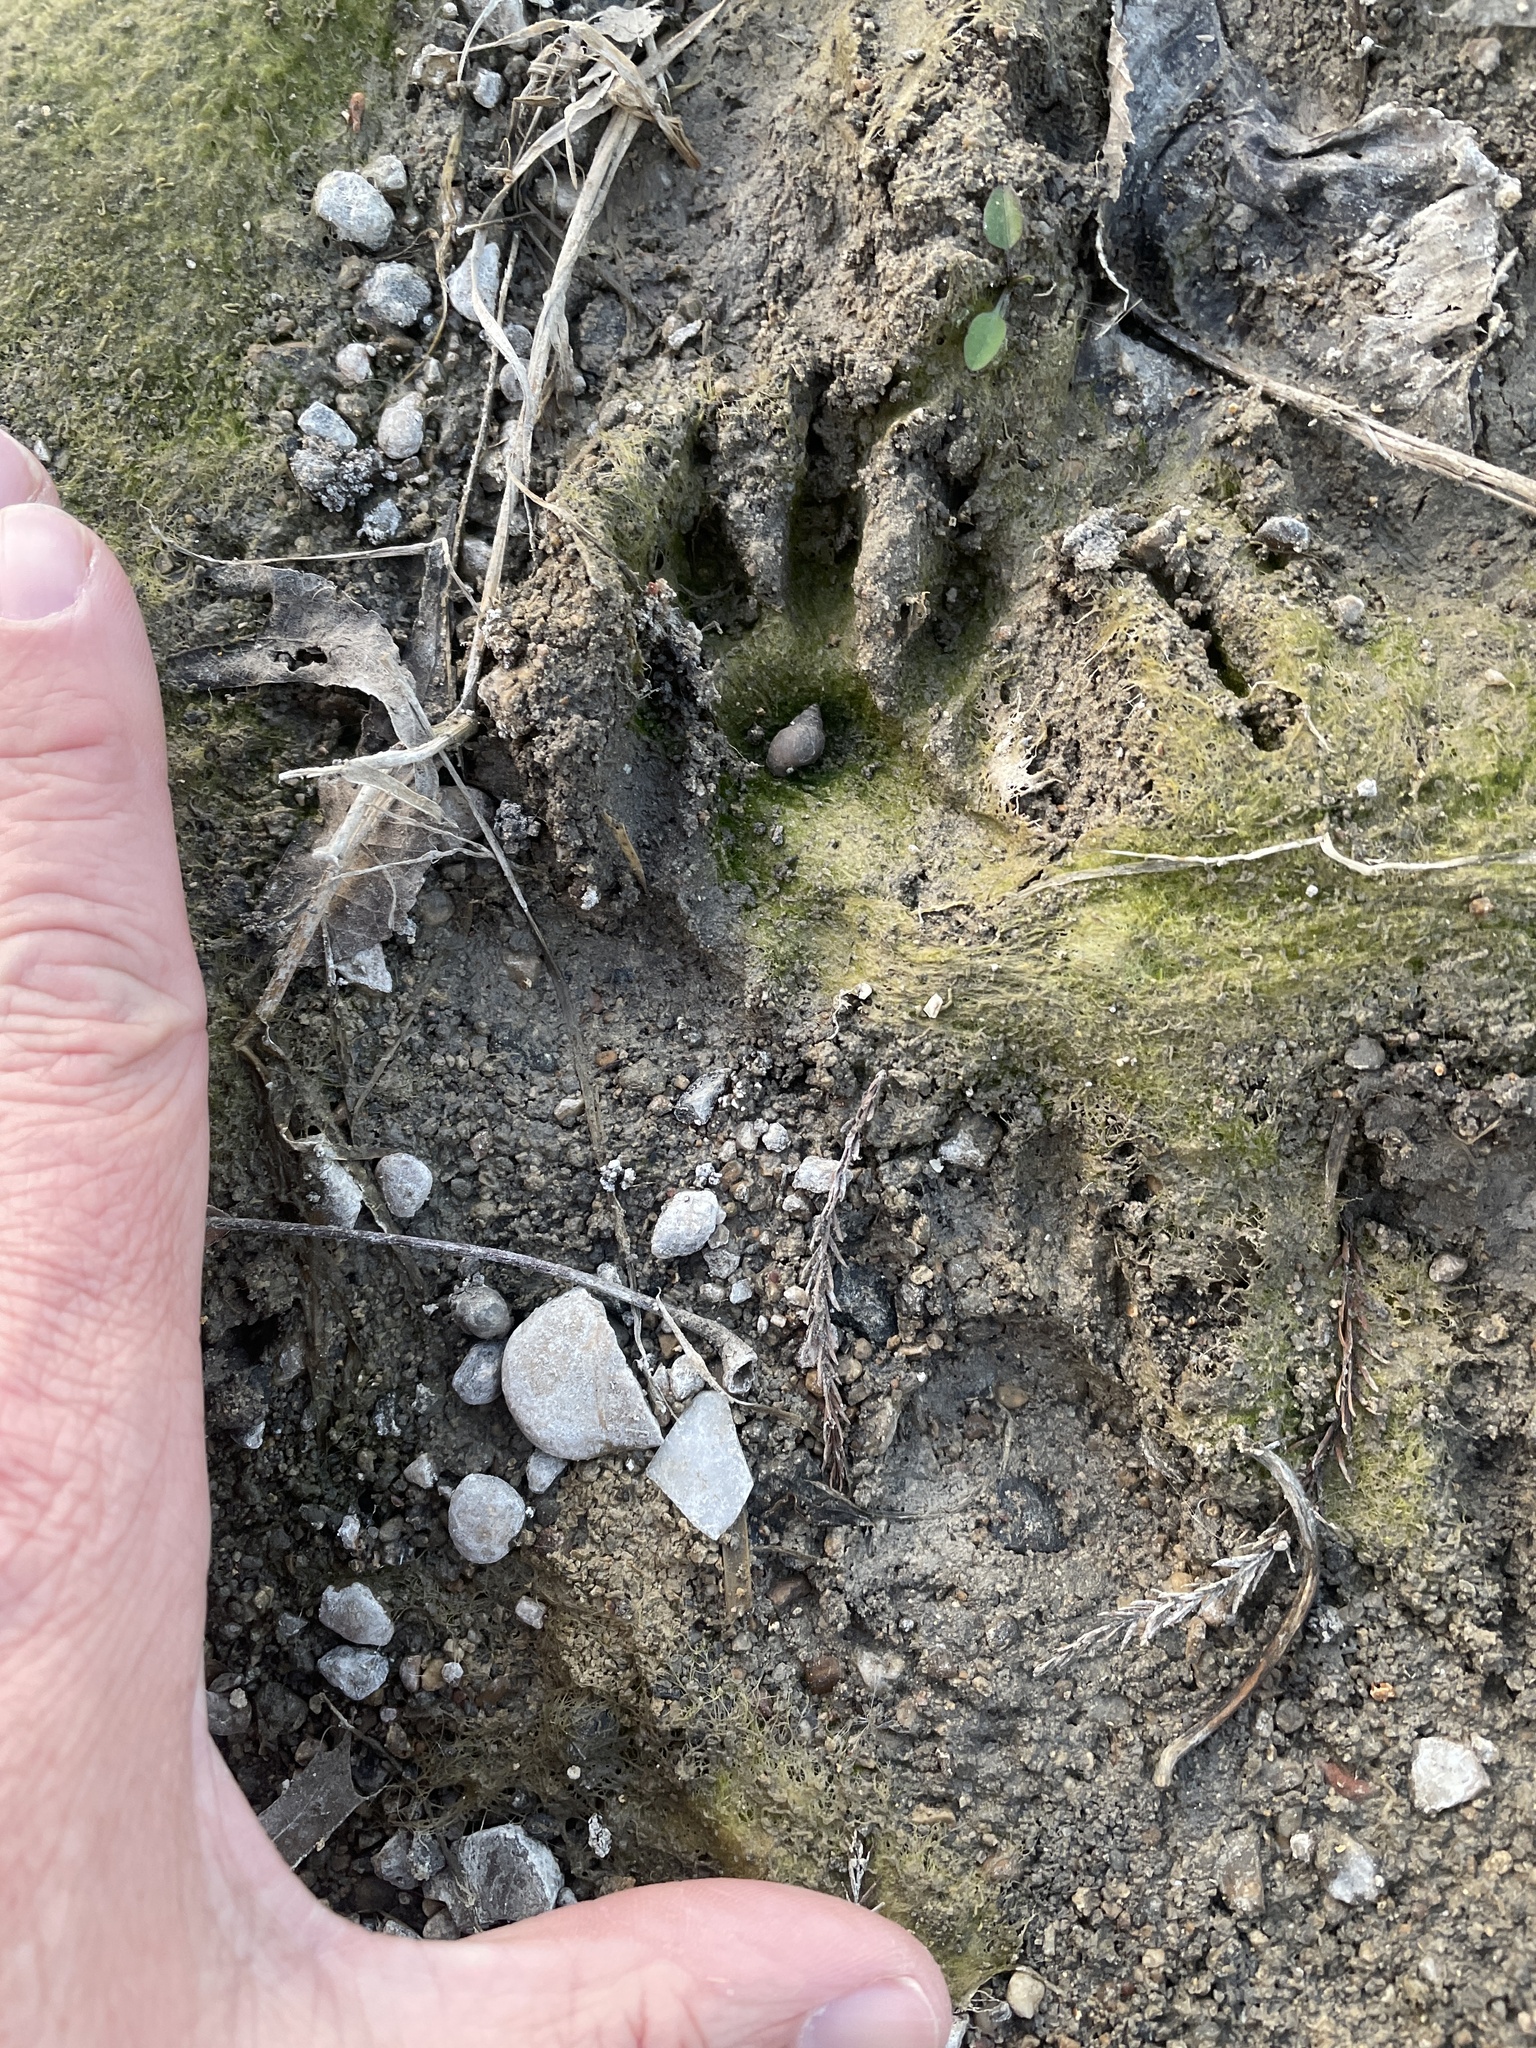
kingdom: Animalia
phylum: Chordata
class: Mammalia
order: Carnivora
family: Procyonidae
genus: Procyon
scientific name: Procyon lotor
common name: Raccoon
